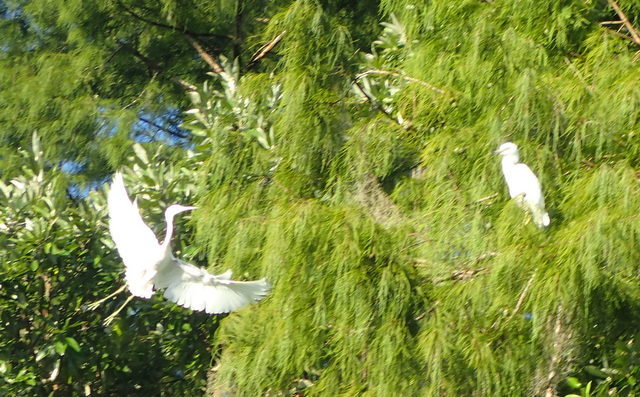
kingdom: Animalia
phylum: Chordata
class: Aves
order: Pelecaniformes
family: Ardeidae
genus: Egretta
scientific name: Egretta caerulea
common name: Little blue heron
